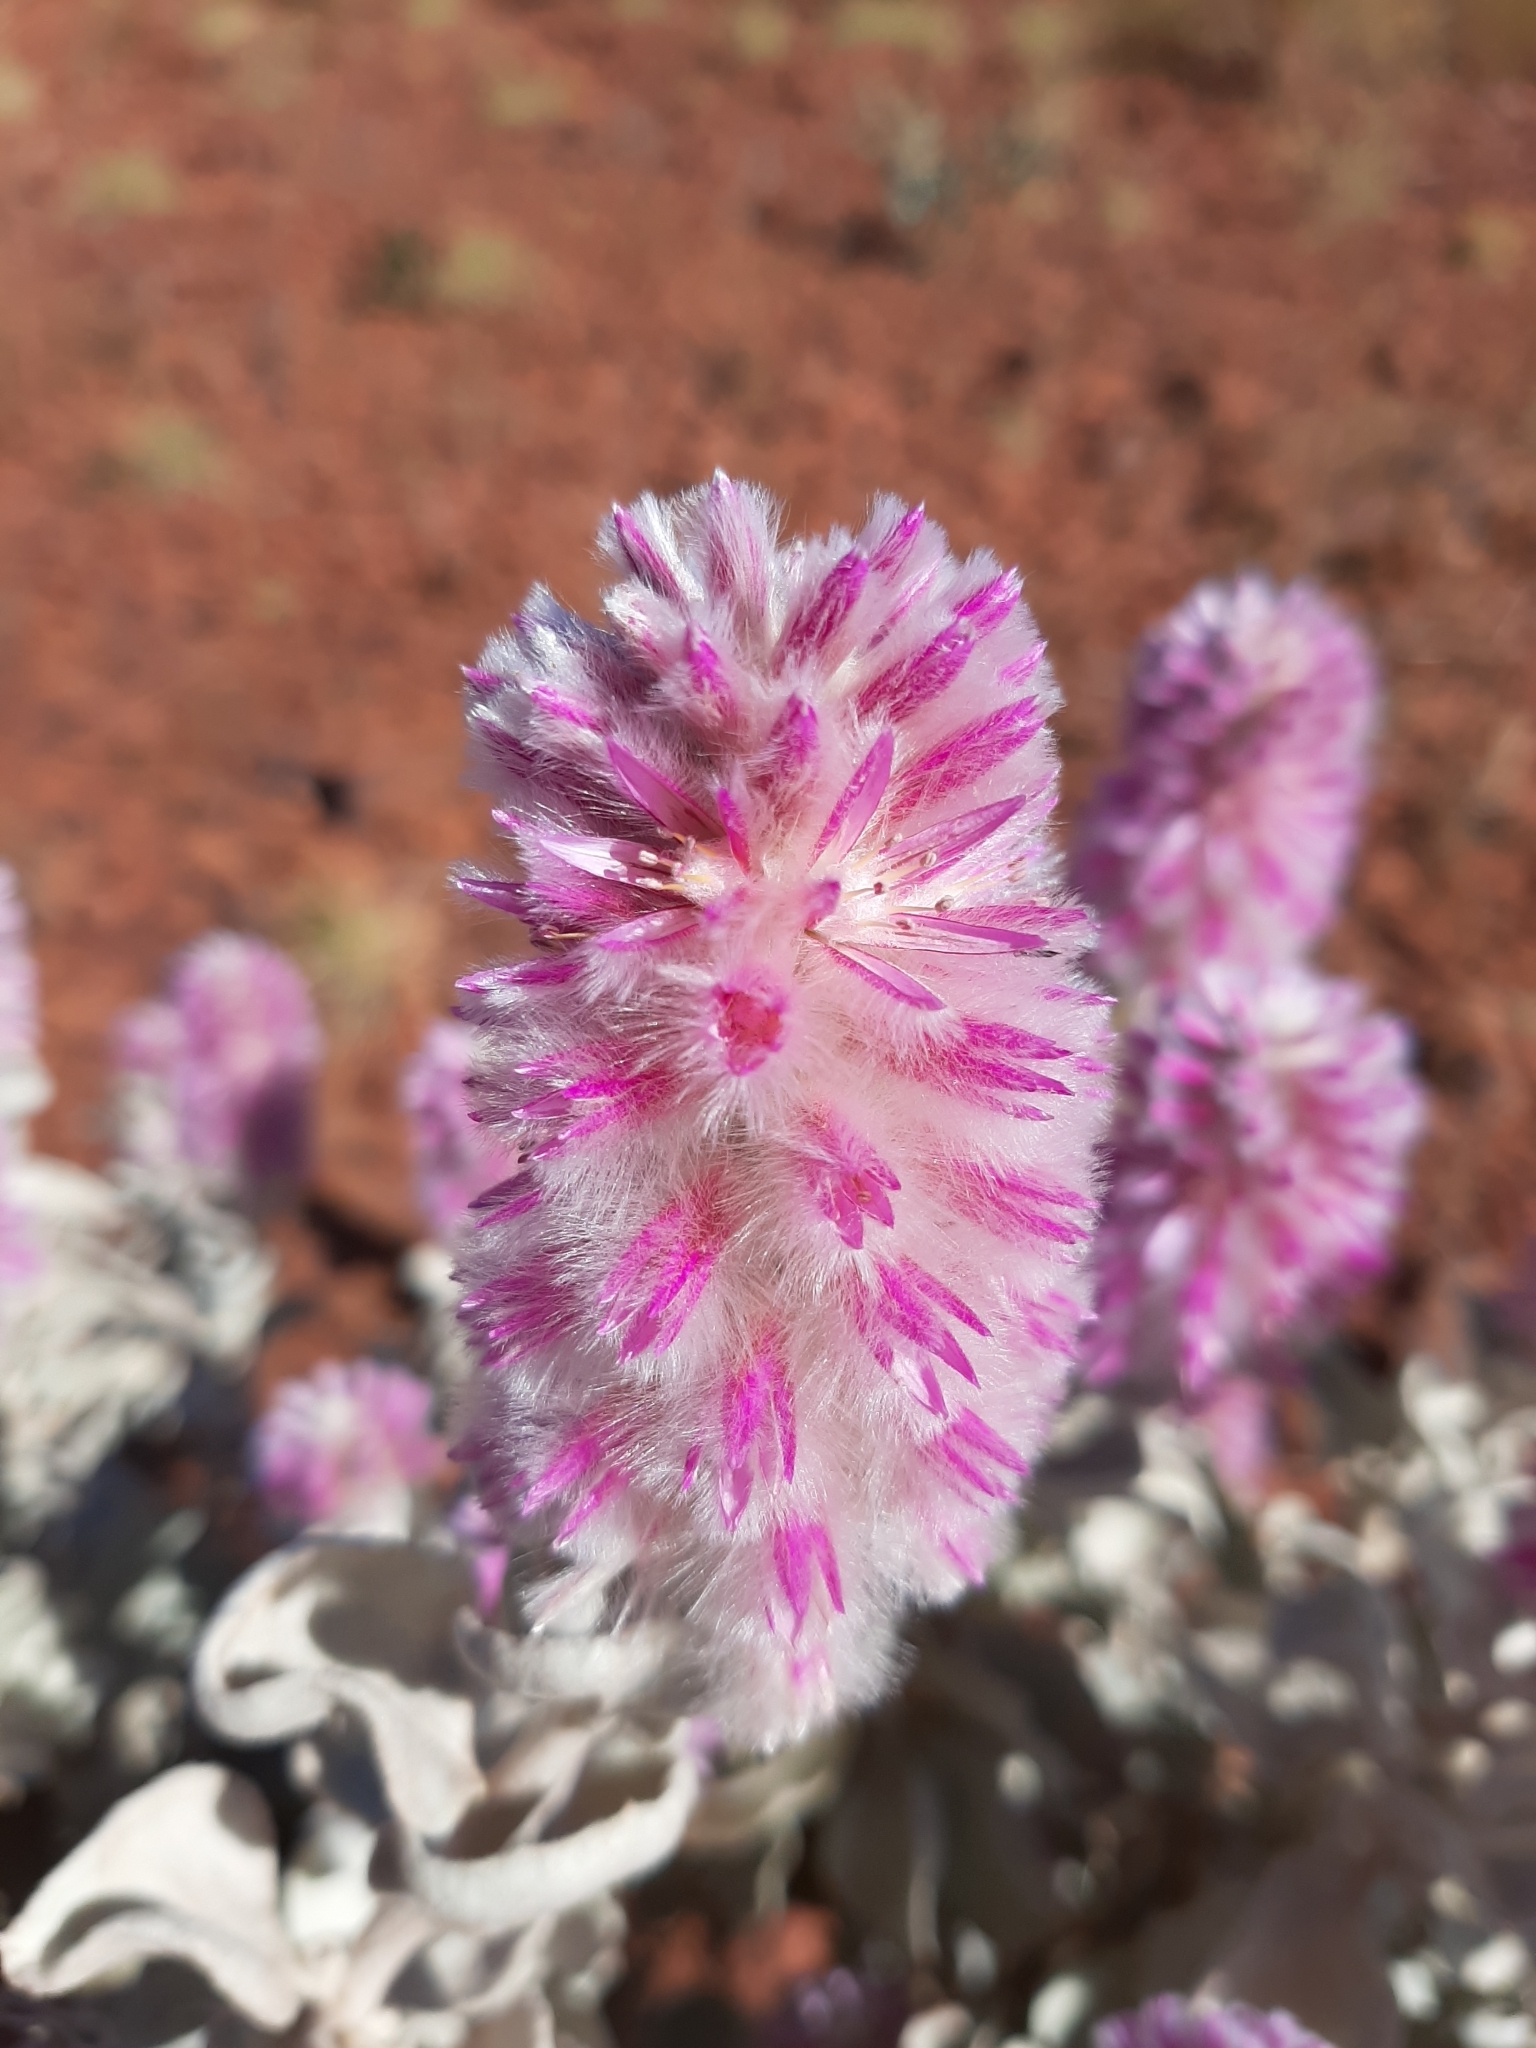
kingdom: Plantae
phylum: Tracheophyta
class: Magnoliopsida
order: Caryophyllales
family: Amaranthaceae
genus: Ptilotus
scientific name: Ptilotus rotundifolius
